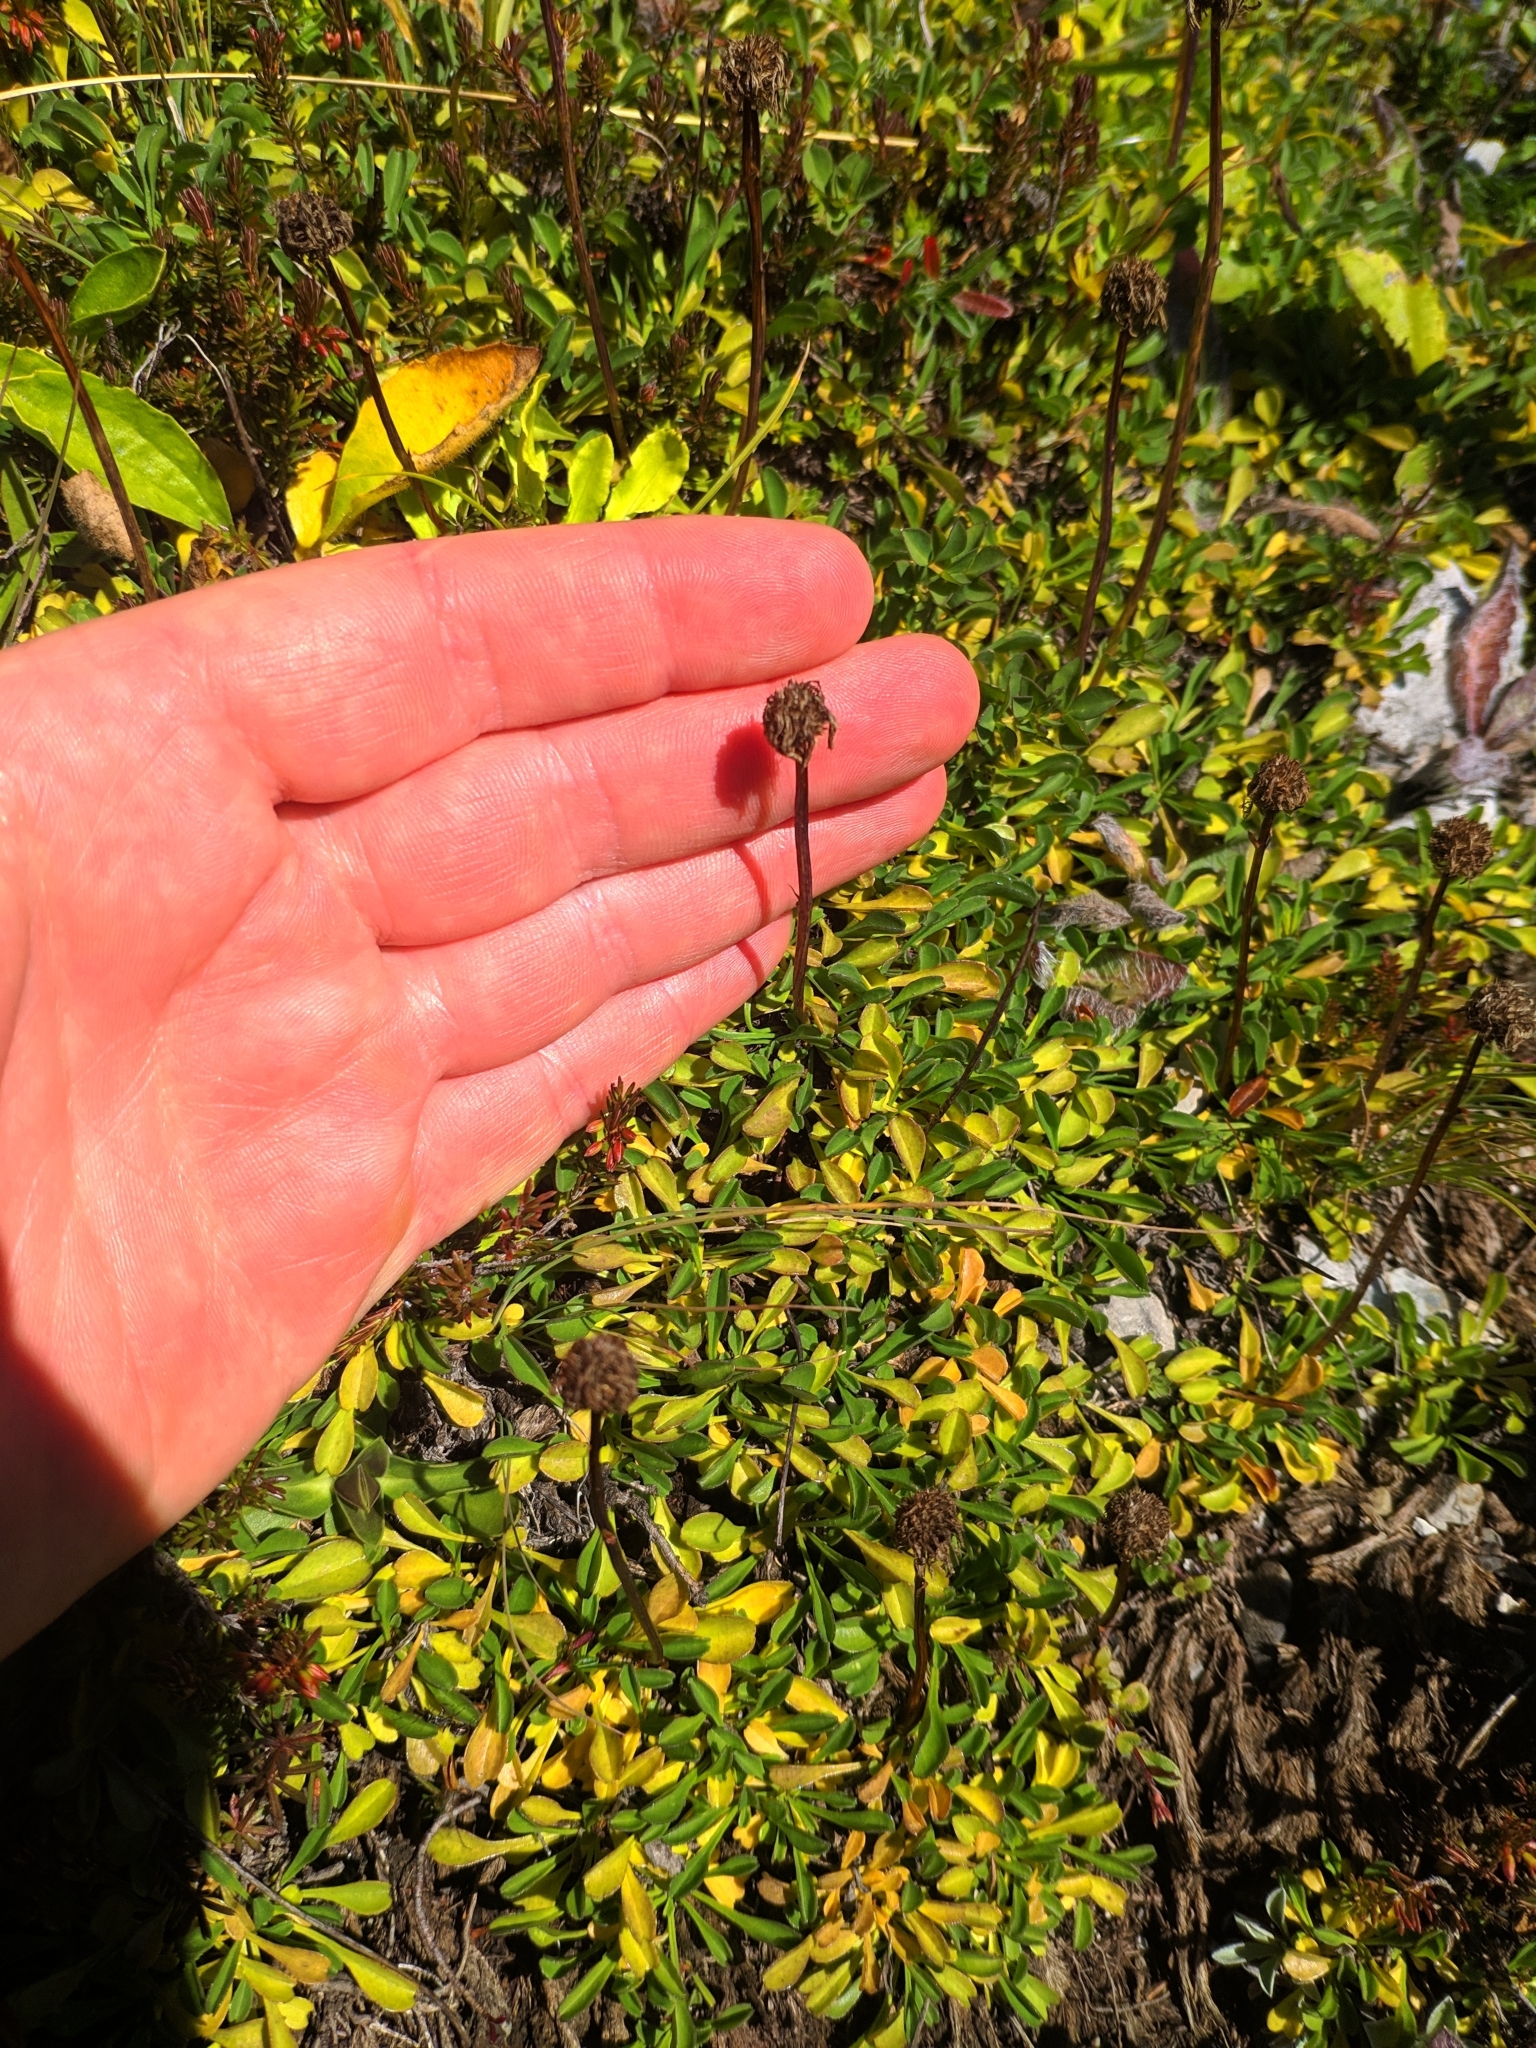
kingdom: Plantae
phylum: Tracheophyta
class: Magnoliopsida
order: Lamiales
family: Plantaginaceae
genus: Globularia
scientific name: Globularia cordifolia
